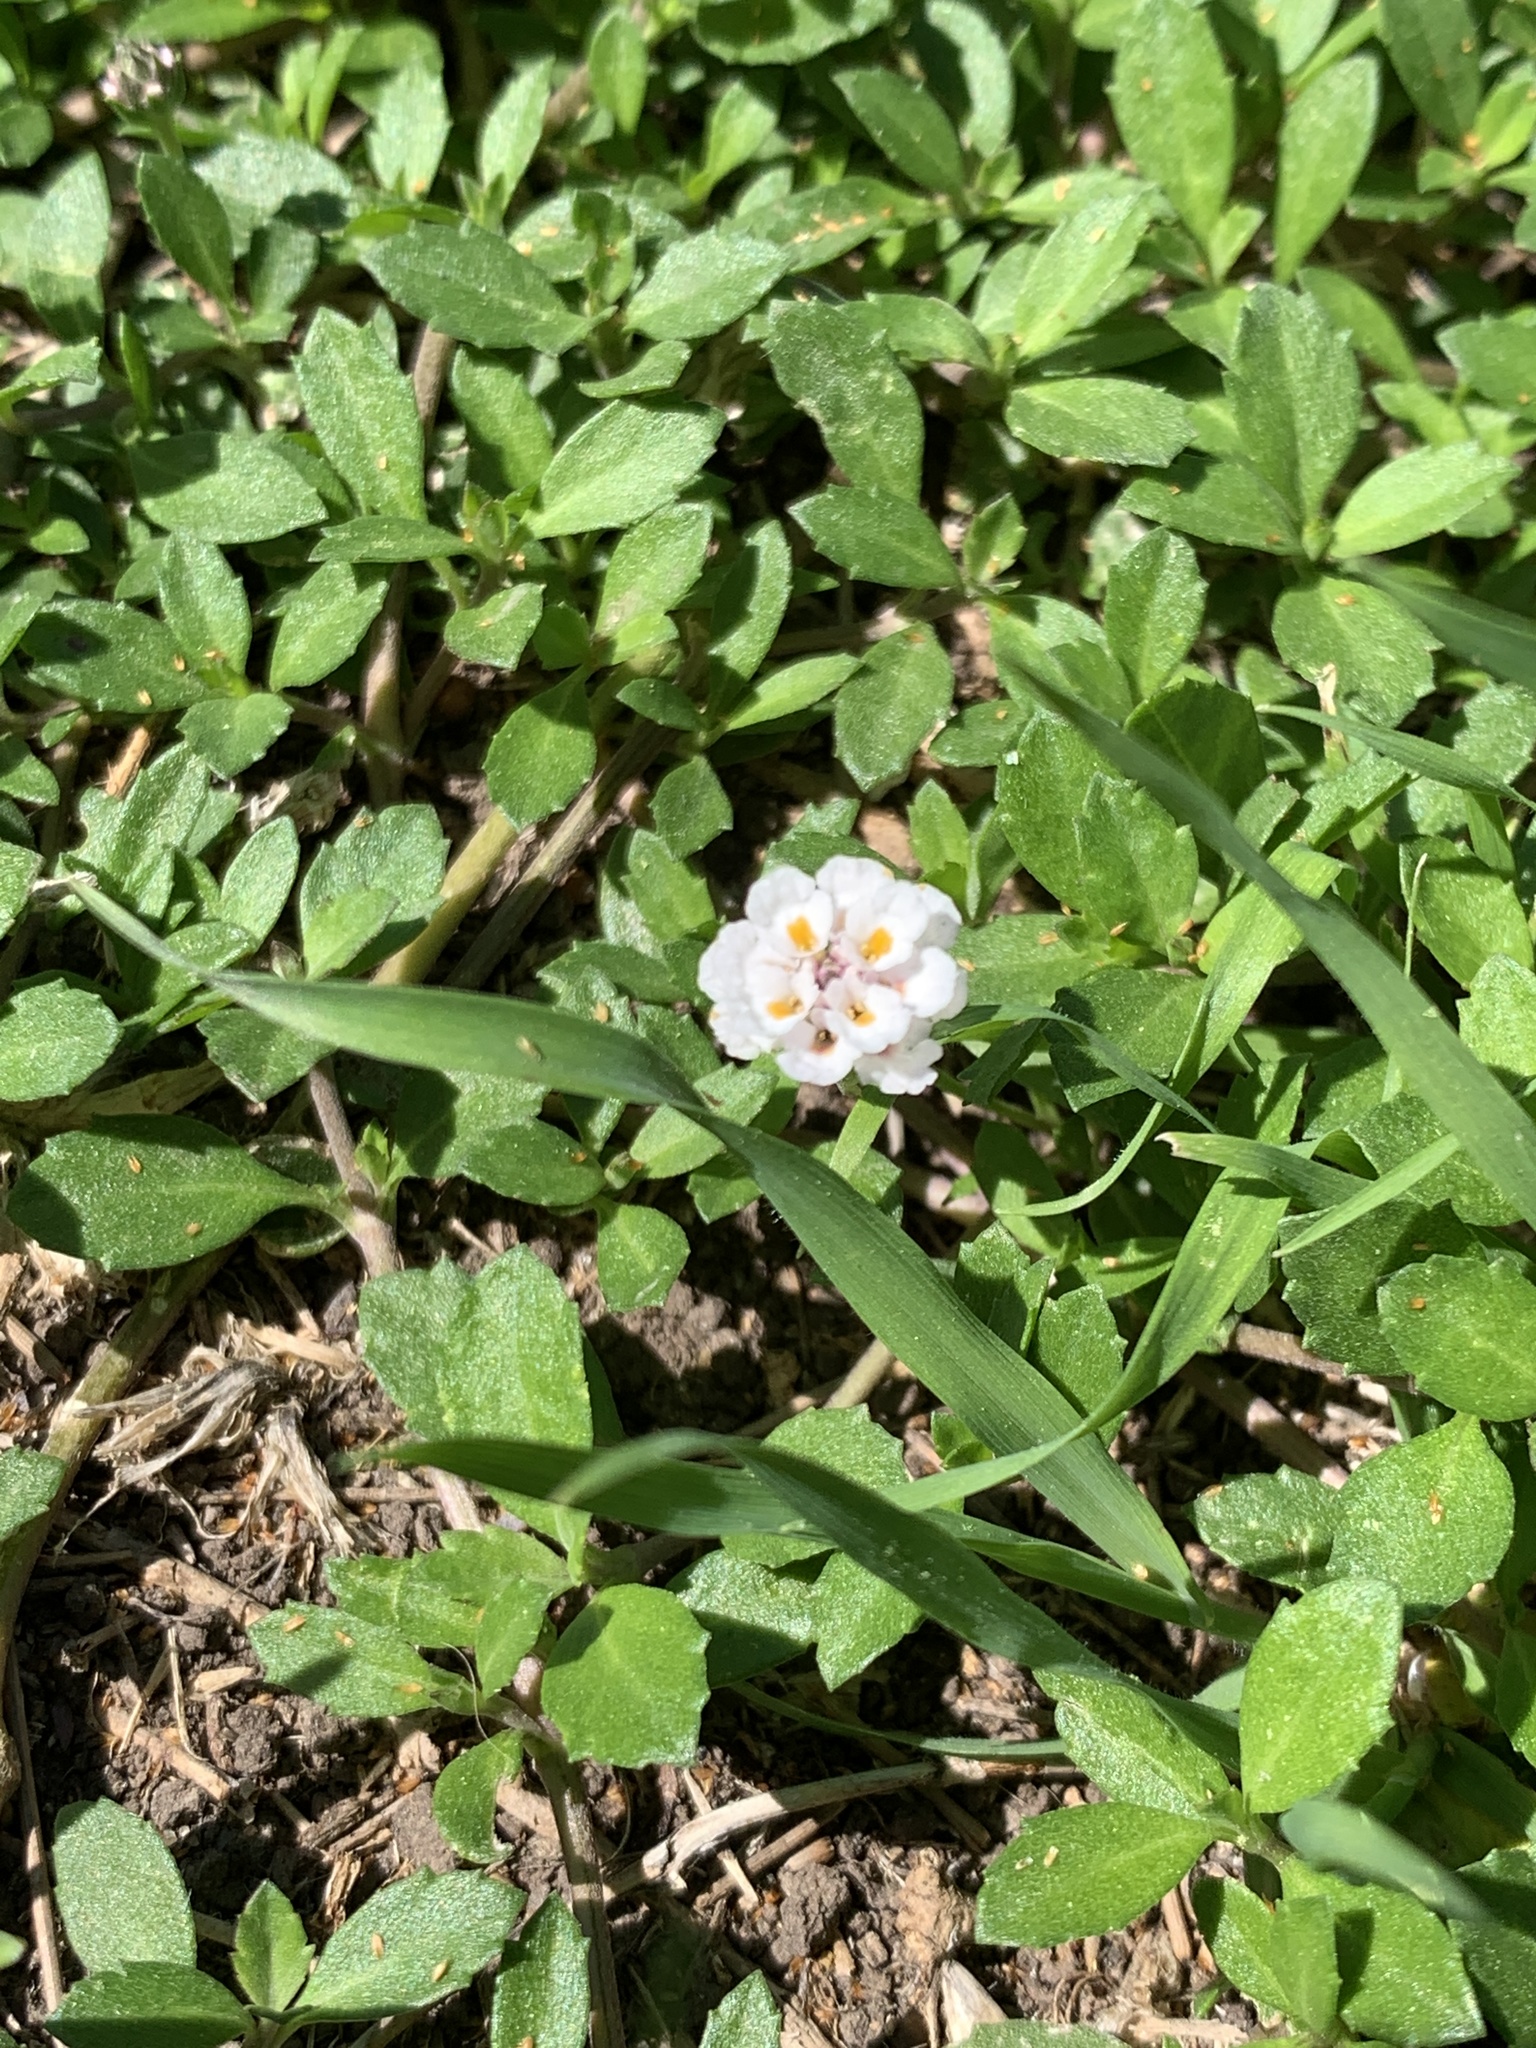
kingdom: Plantae
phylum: Tracheophyta
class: Magnoliopsida
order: Lamiales
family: Verbenaceae
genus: Phyla
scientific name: Phyla nodiflora
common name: Frogfruit
